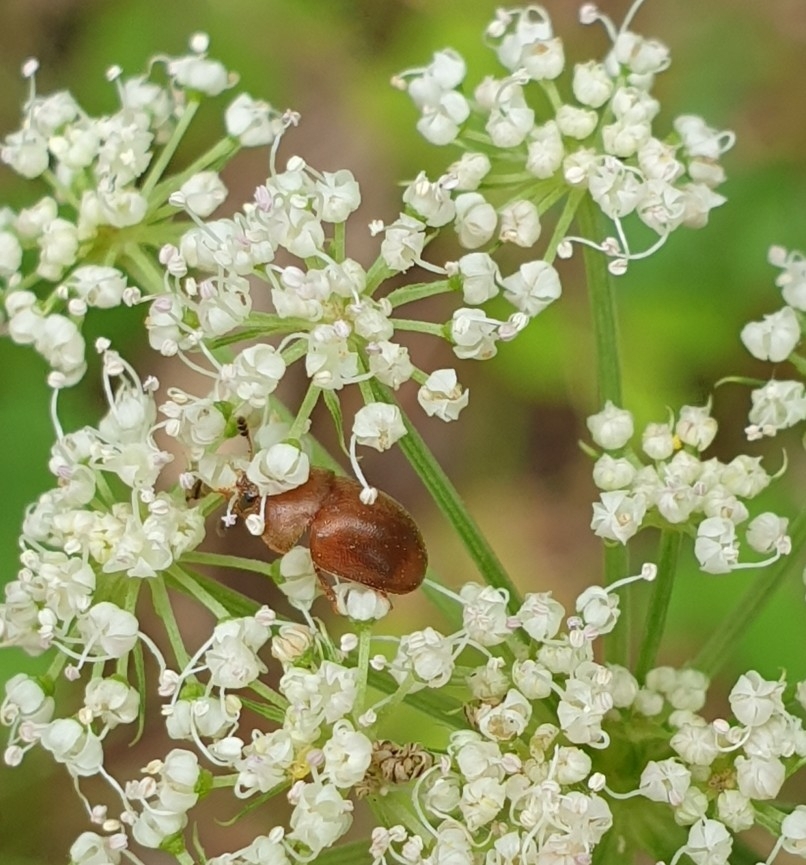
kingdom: Animalia
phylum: Arthropoda
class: Insecta
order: Coleoptera
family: Nitidulidae
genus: Cychramus
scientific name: Cychramus luteus
